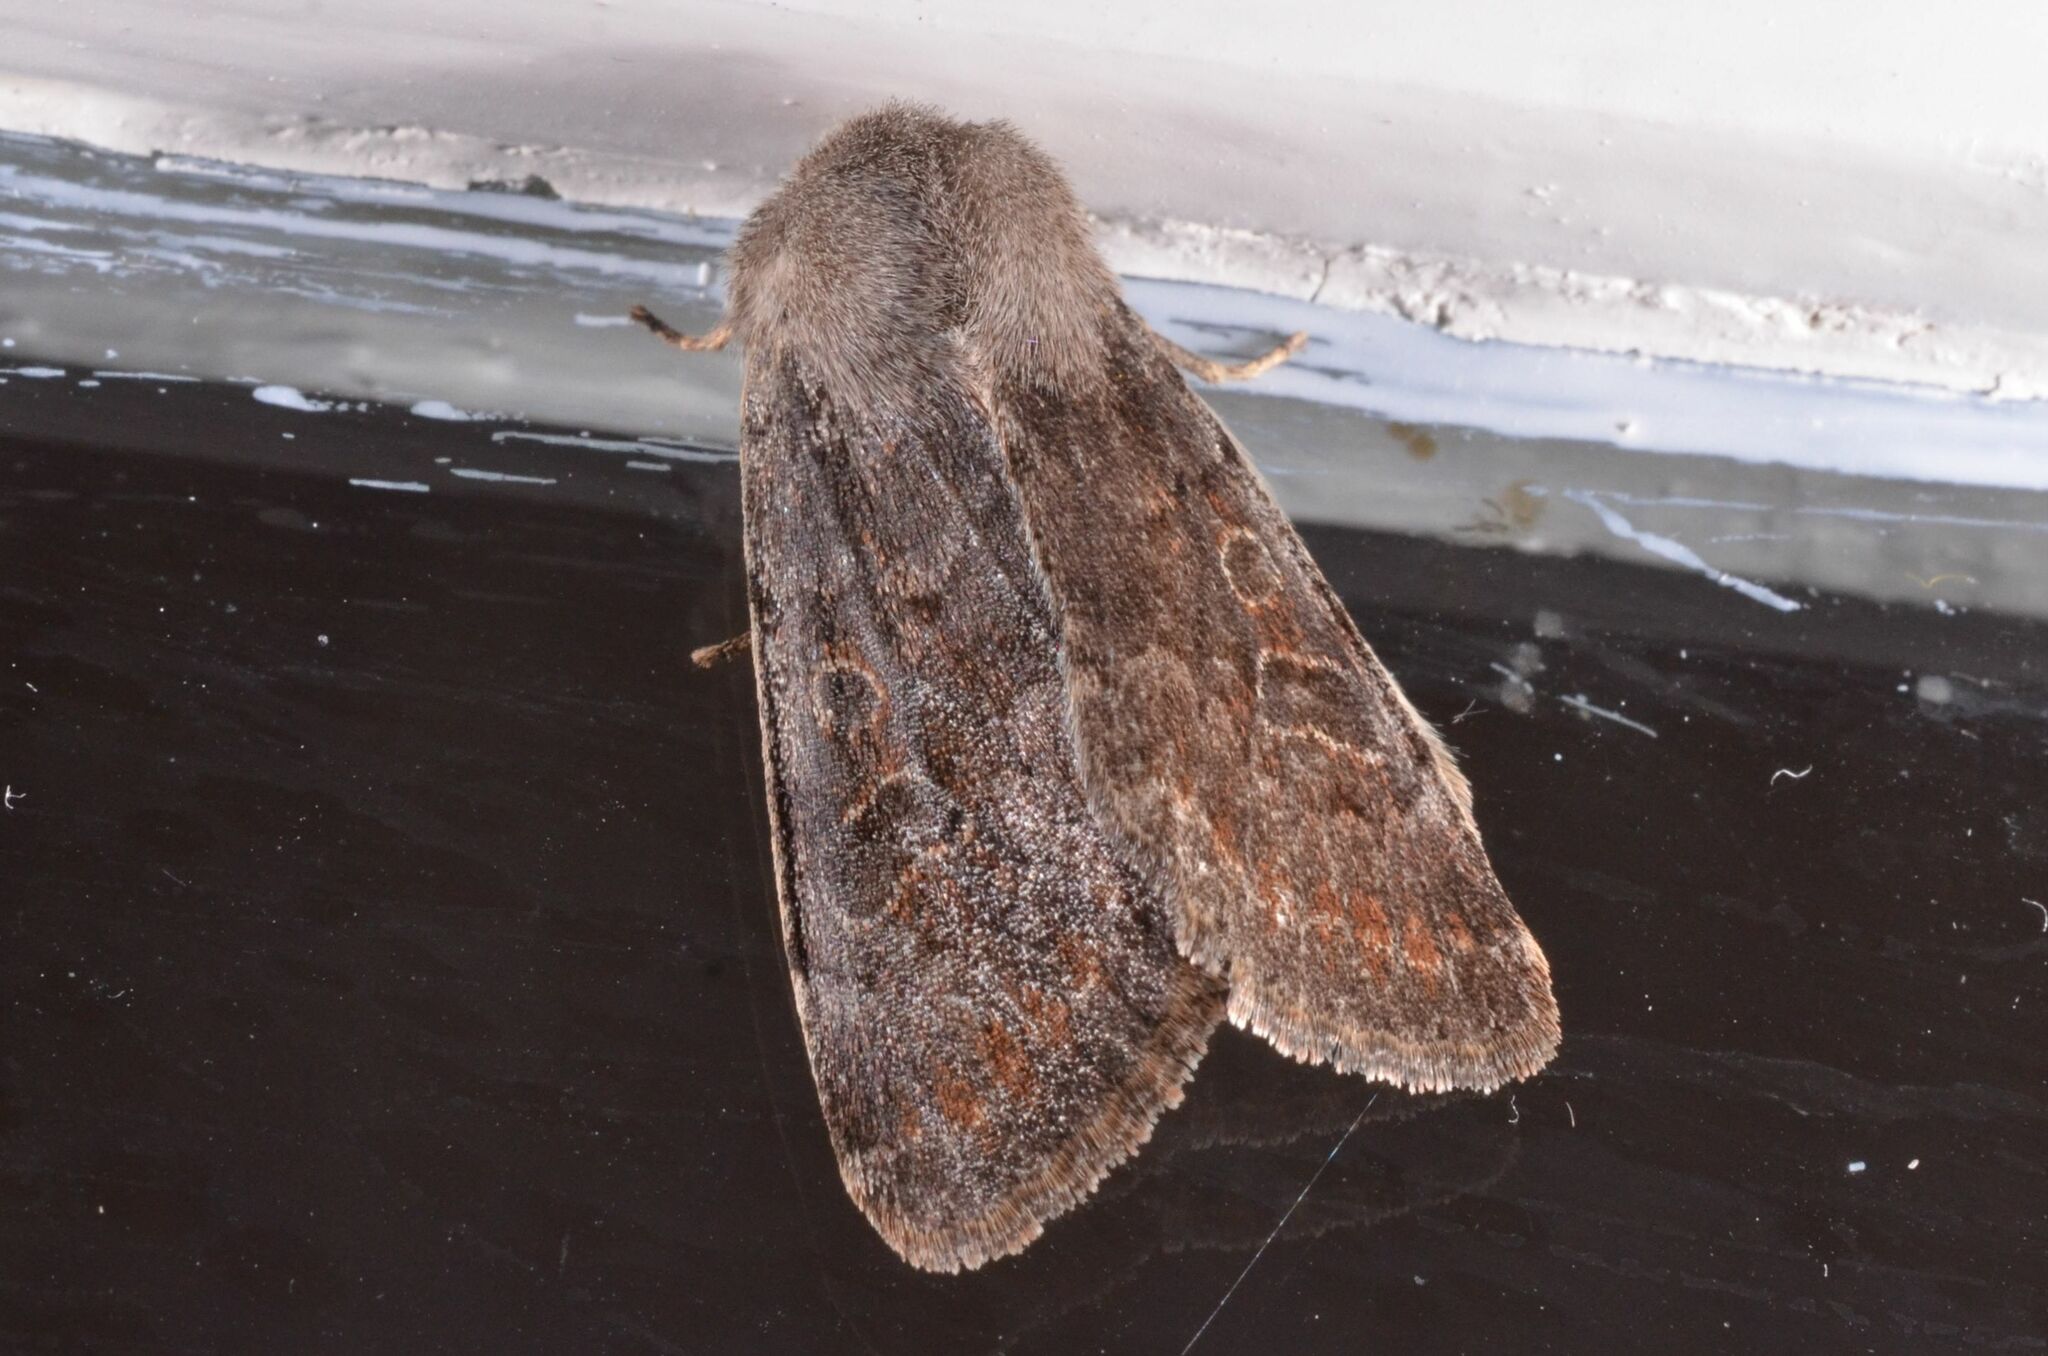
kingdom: Animalia
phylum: Arthropoda
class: Insecta
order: Lepidoptera
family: Noctuidae
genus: Orthosia
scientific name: Orthosia populeti
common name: Lead-coloured drab
